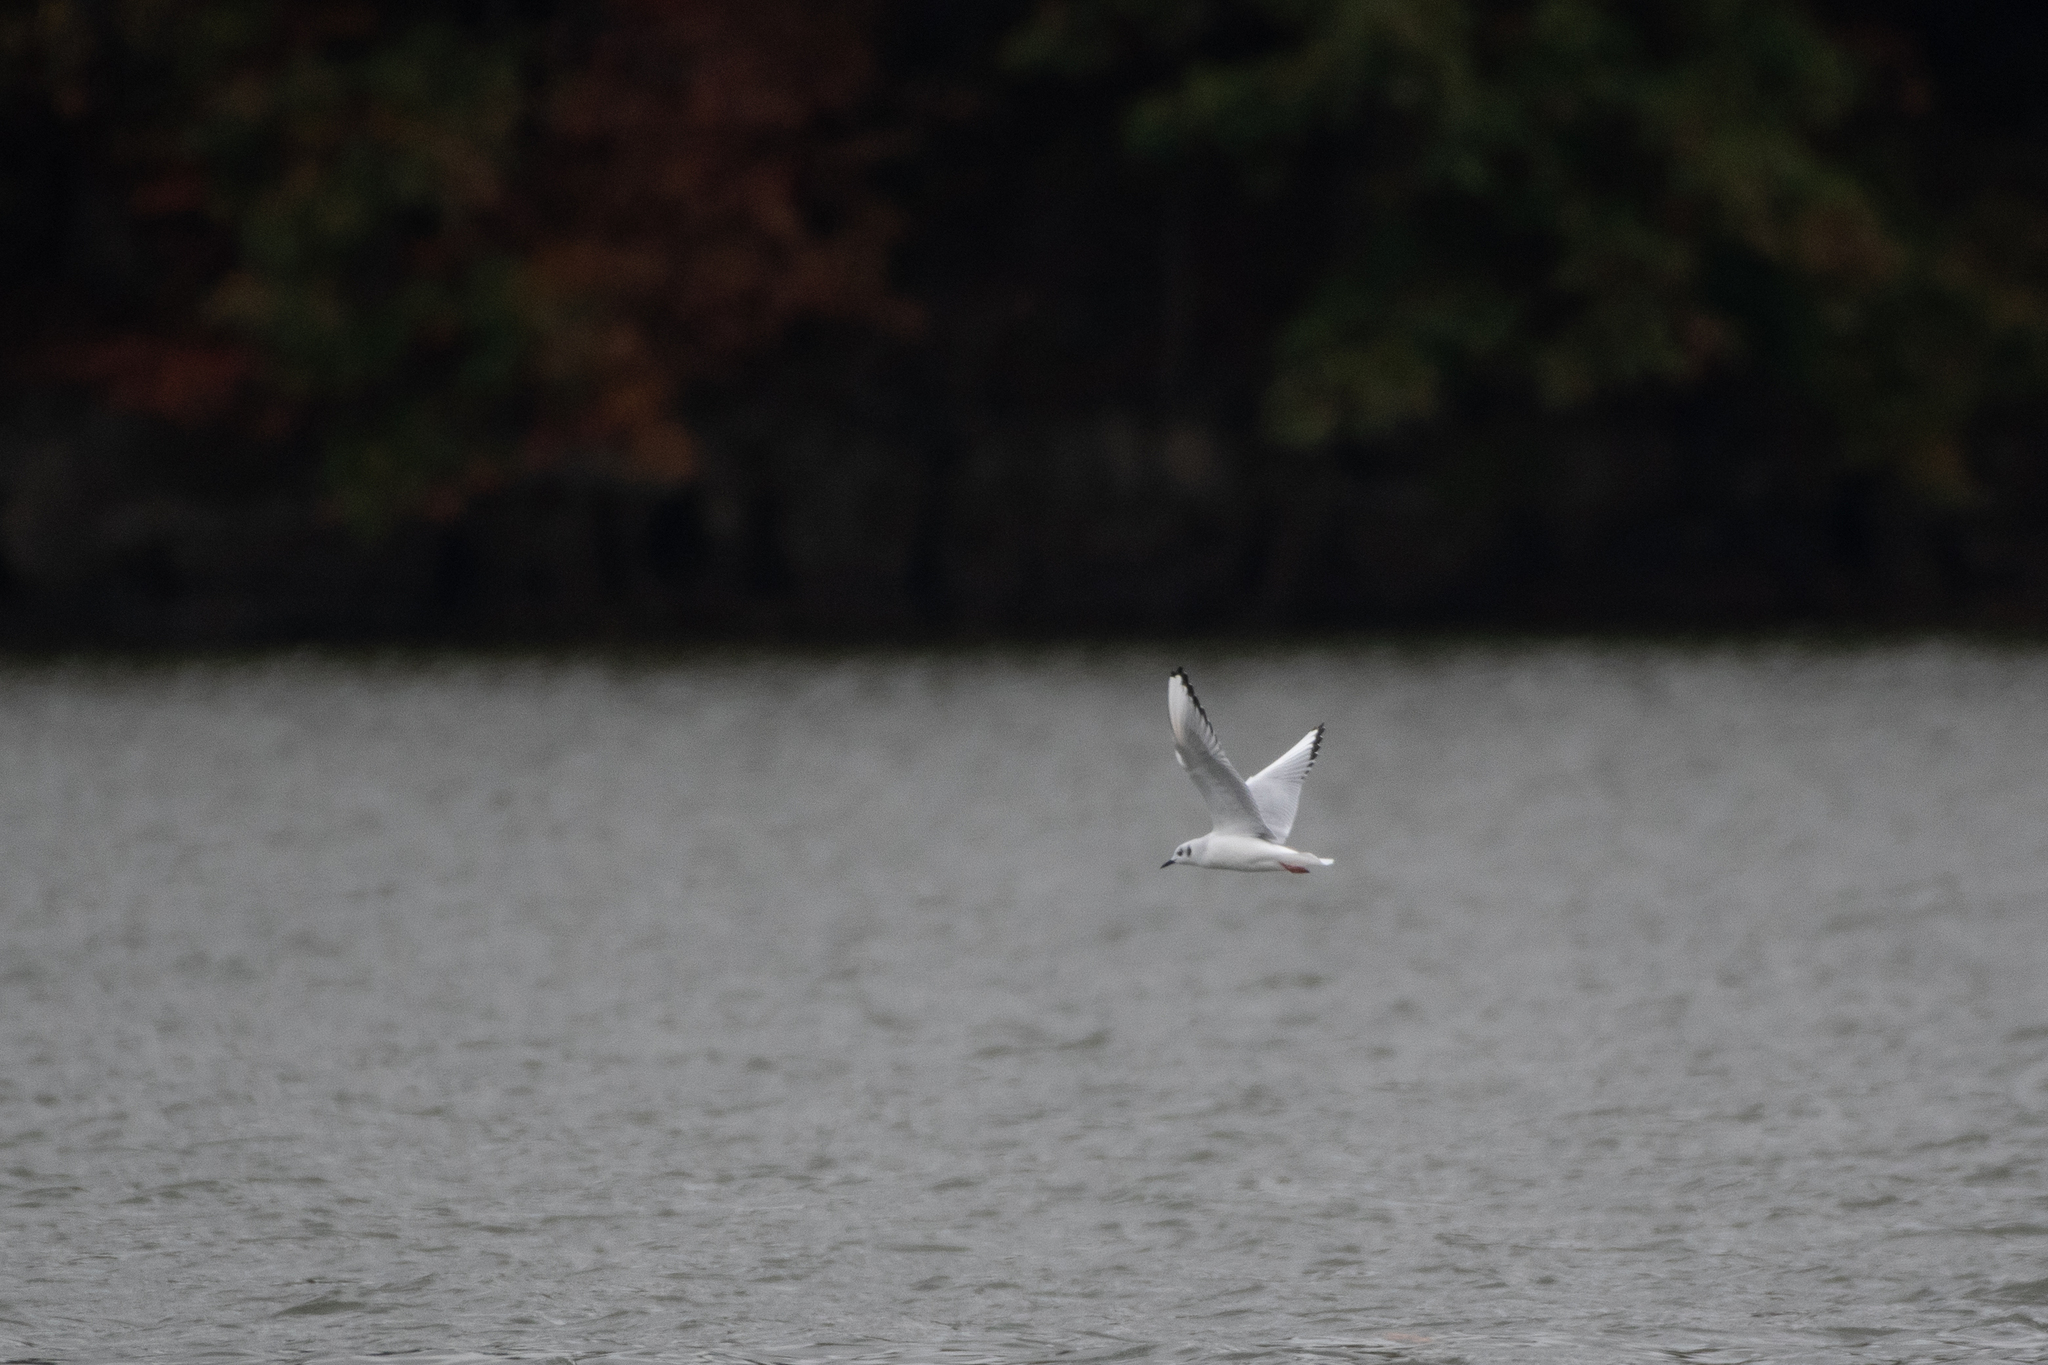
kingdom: Animalia
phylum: Chordata
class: Aves
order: Charadriiformes
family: Laridae
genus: Chroicocephalus
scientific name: Chroicocephalus philadelphia
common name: Bonaparte's gull
